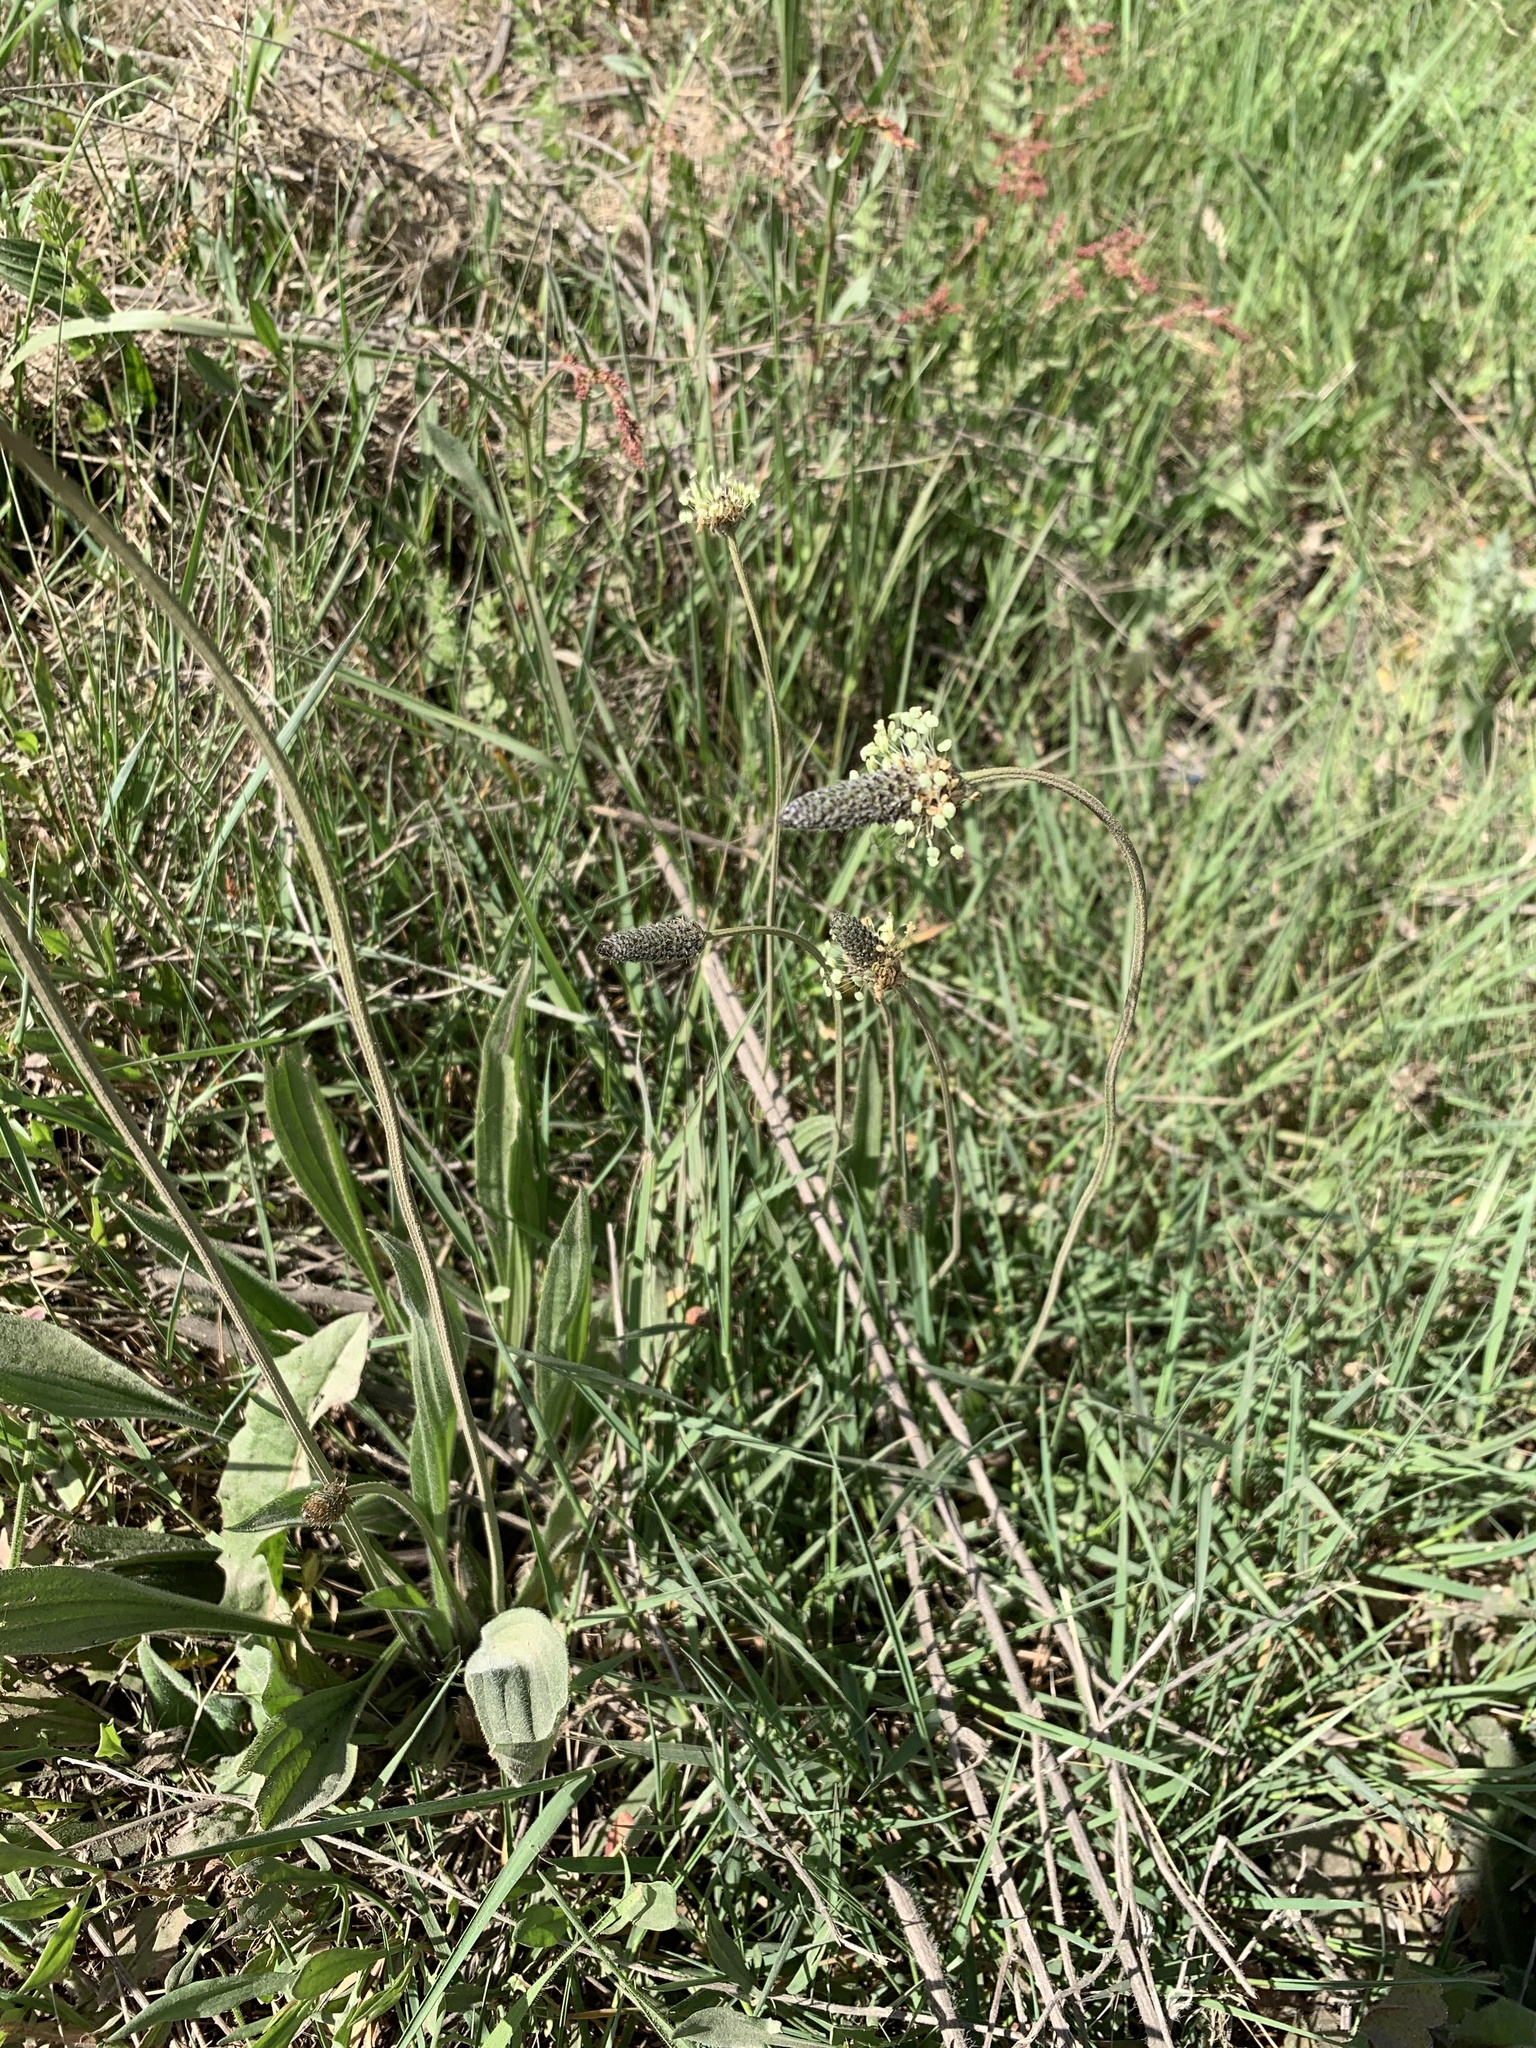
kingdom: Plantae
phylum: Tracheophyta
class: Magnoliopsida
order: Lamiales
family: Plantaginaceae
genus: Plantago
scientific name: Plantago lanceolata
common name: Ribwort plantain
